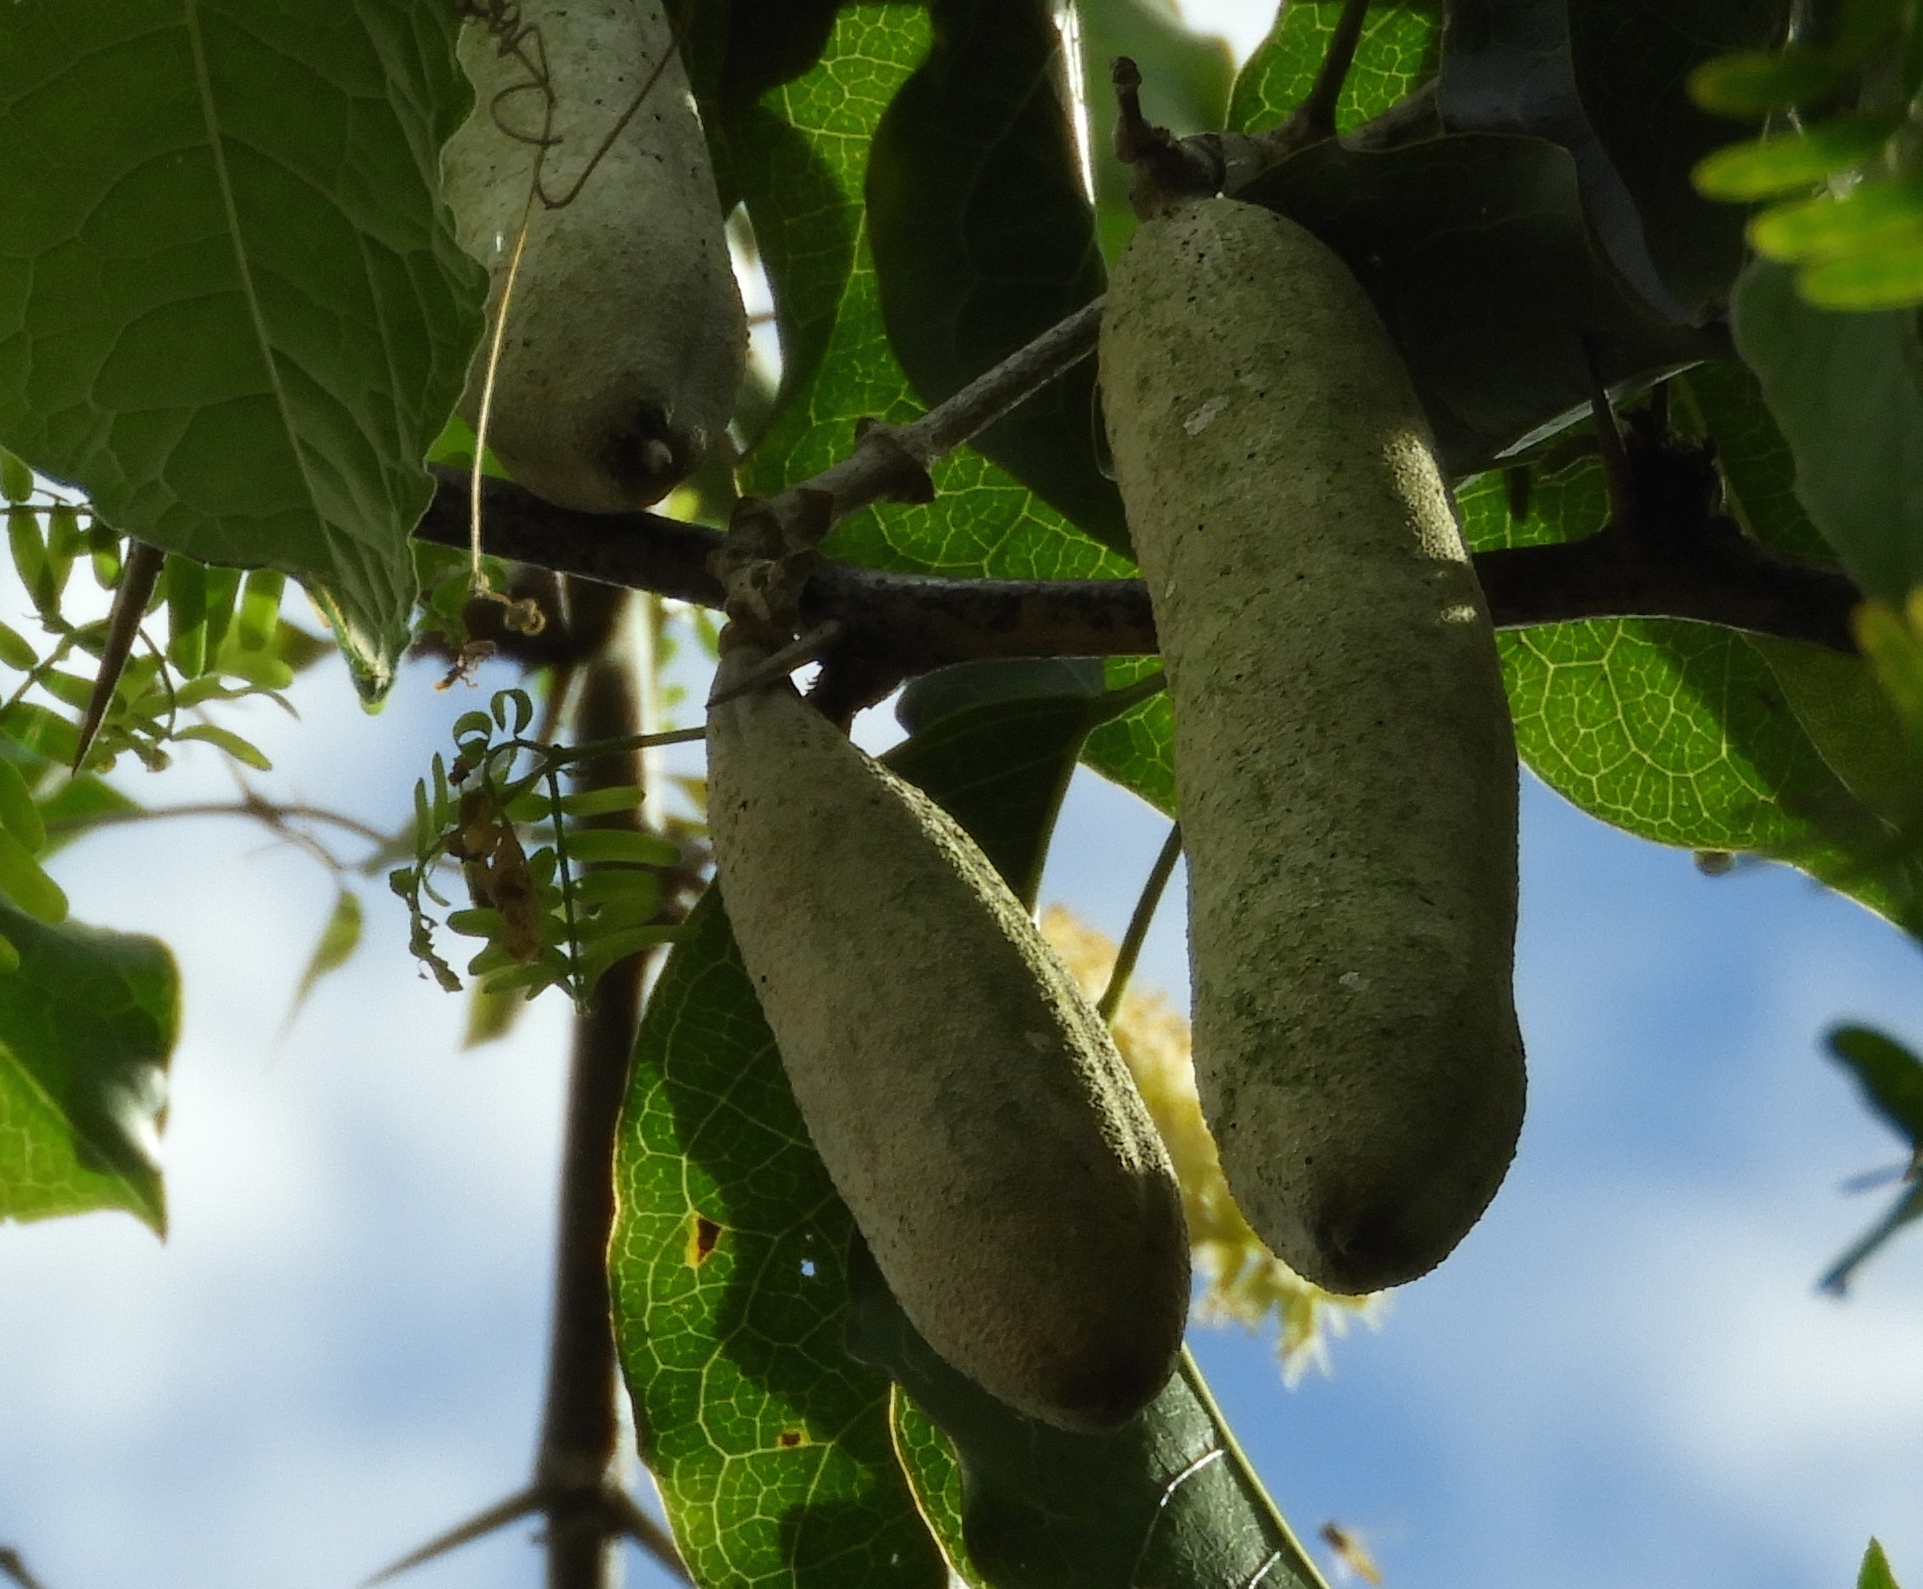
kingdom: Plantae
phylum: Tracheophyta
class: Magnoliopsida
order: Lamiales
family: Bignoniaceae
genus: Adenocalymma
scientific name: Adenocalymma inundatum
